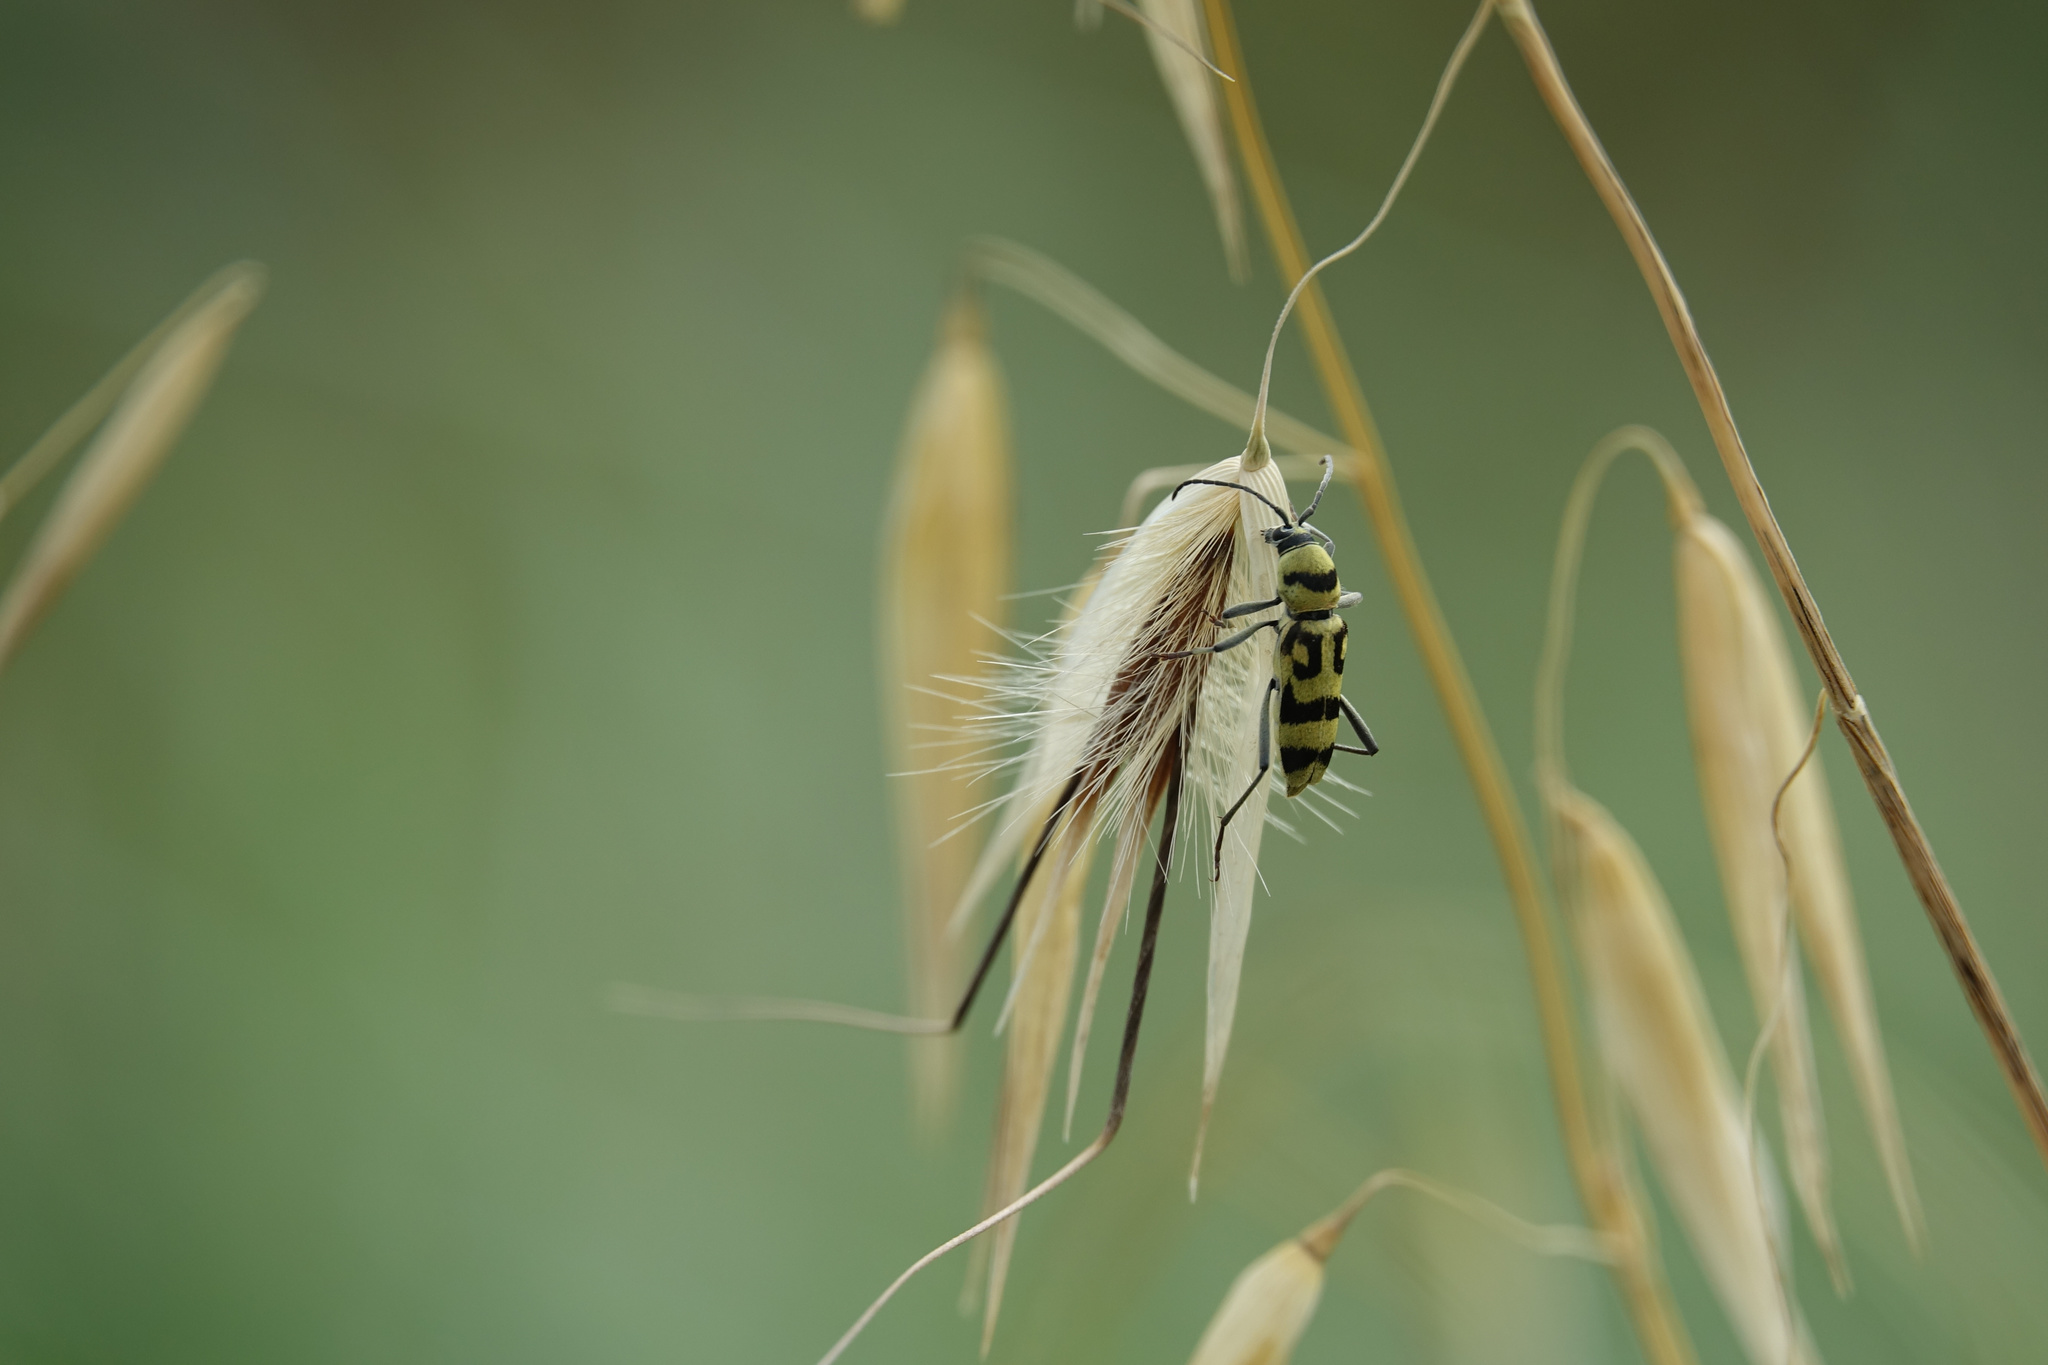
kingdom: Animalia
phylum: Arthropoda
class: Insecta
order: Coleoptera
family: Cerambycidae
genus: Chlorophorus
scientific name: Chlorophorus varius
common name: Grape wood borer
